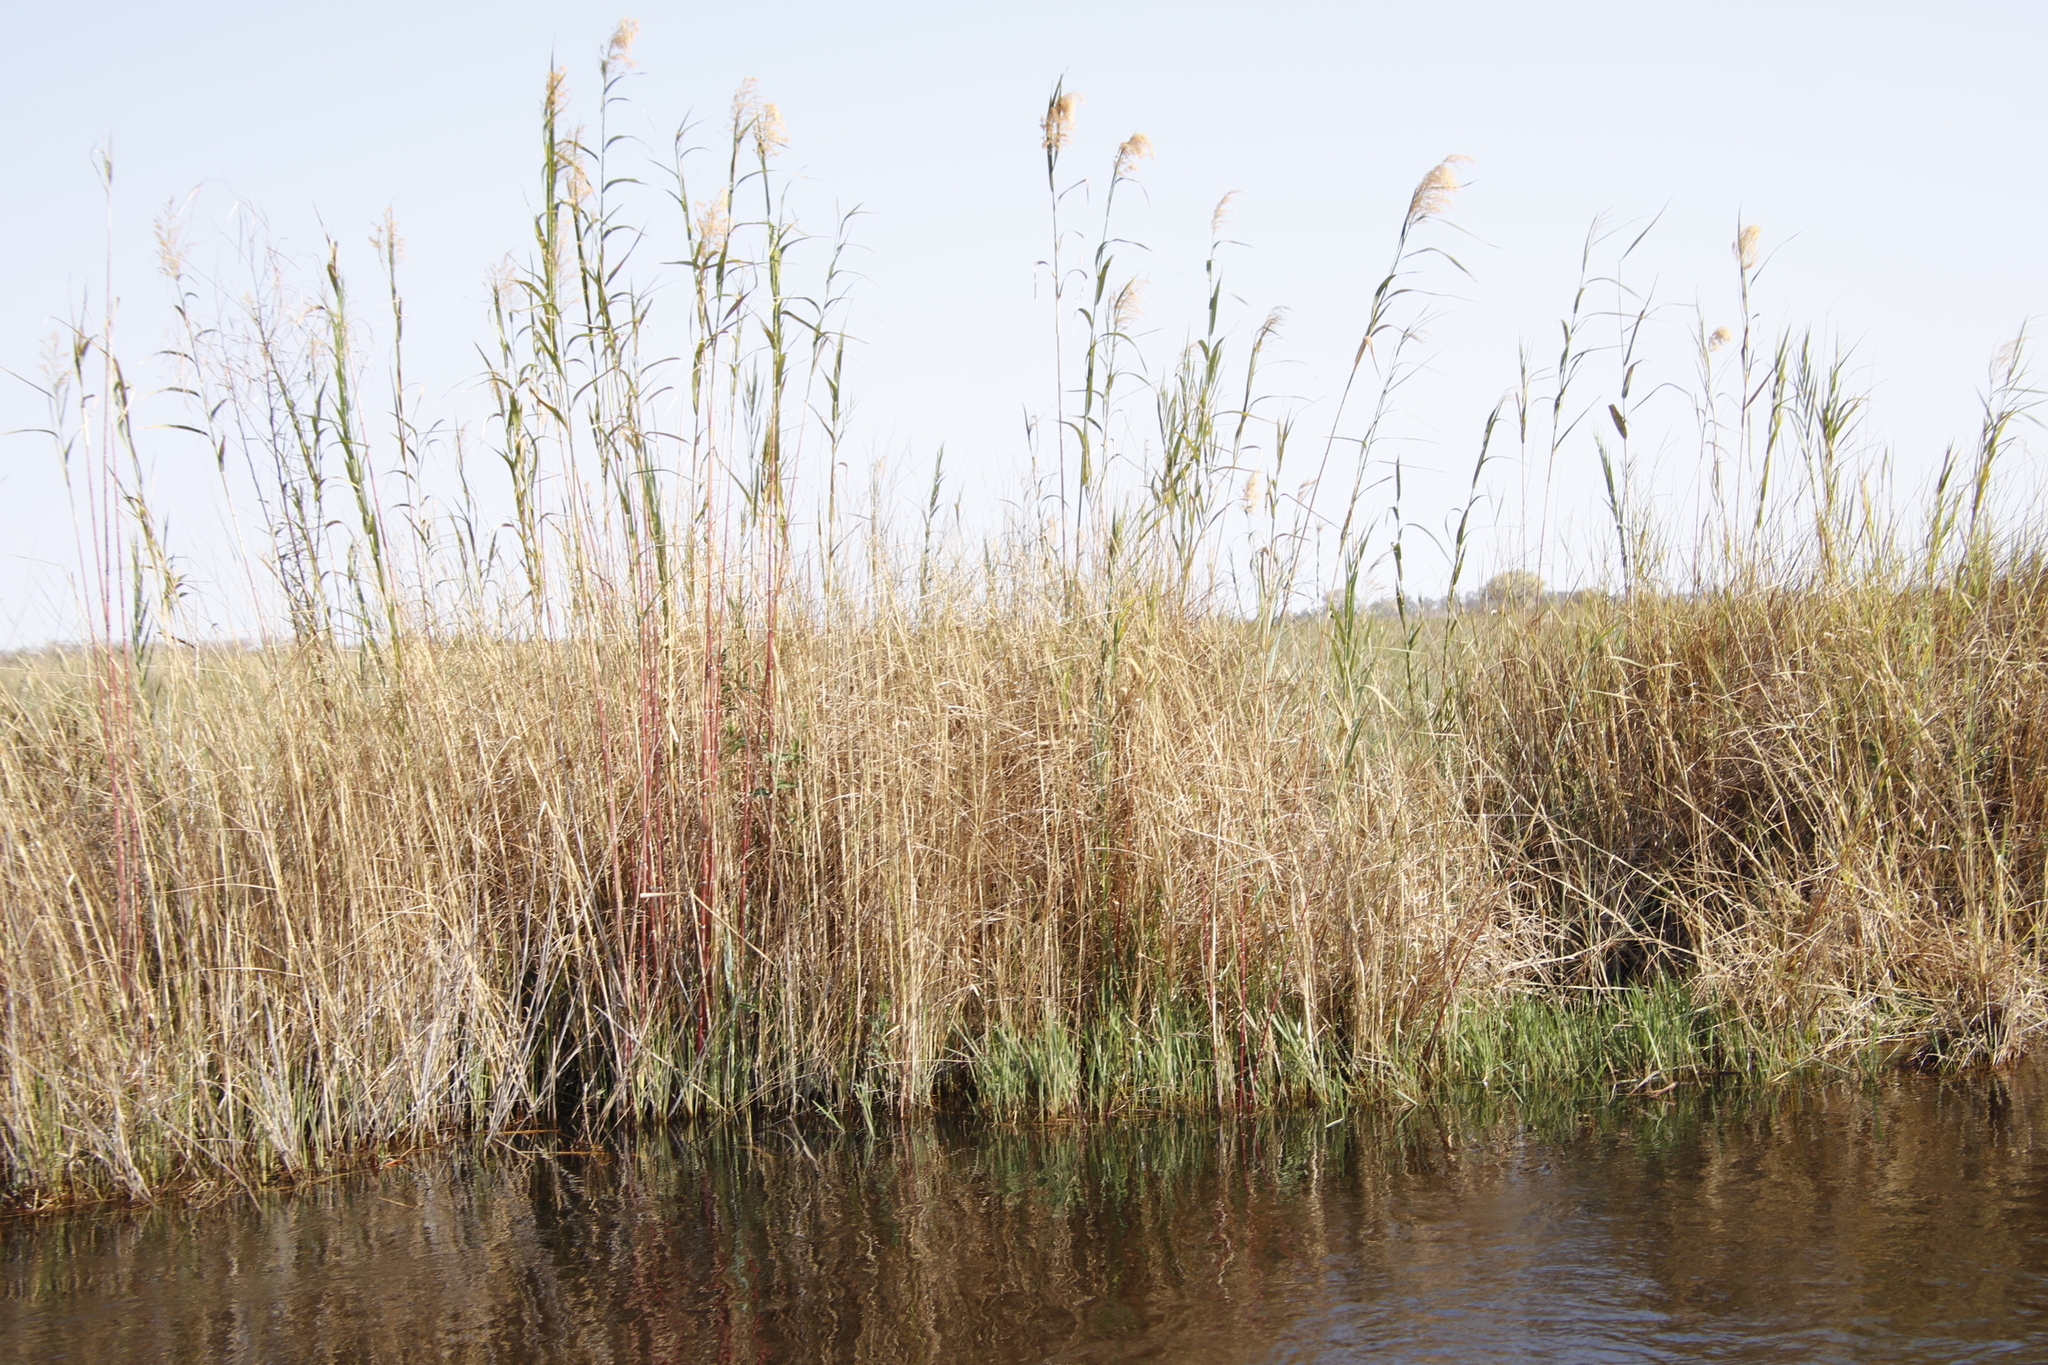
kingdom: Plantae
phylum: Tracheophyta
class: Liliopsida
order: Poales
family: Poaceae
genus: Phragmites
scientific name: Phragmites australis
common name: Common reed
